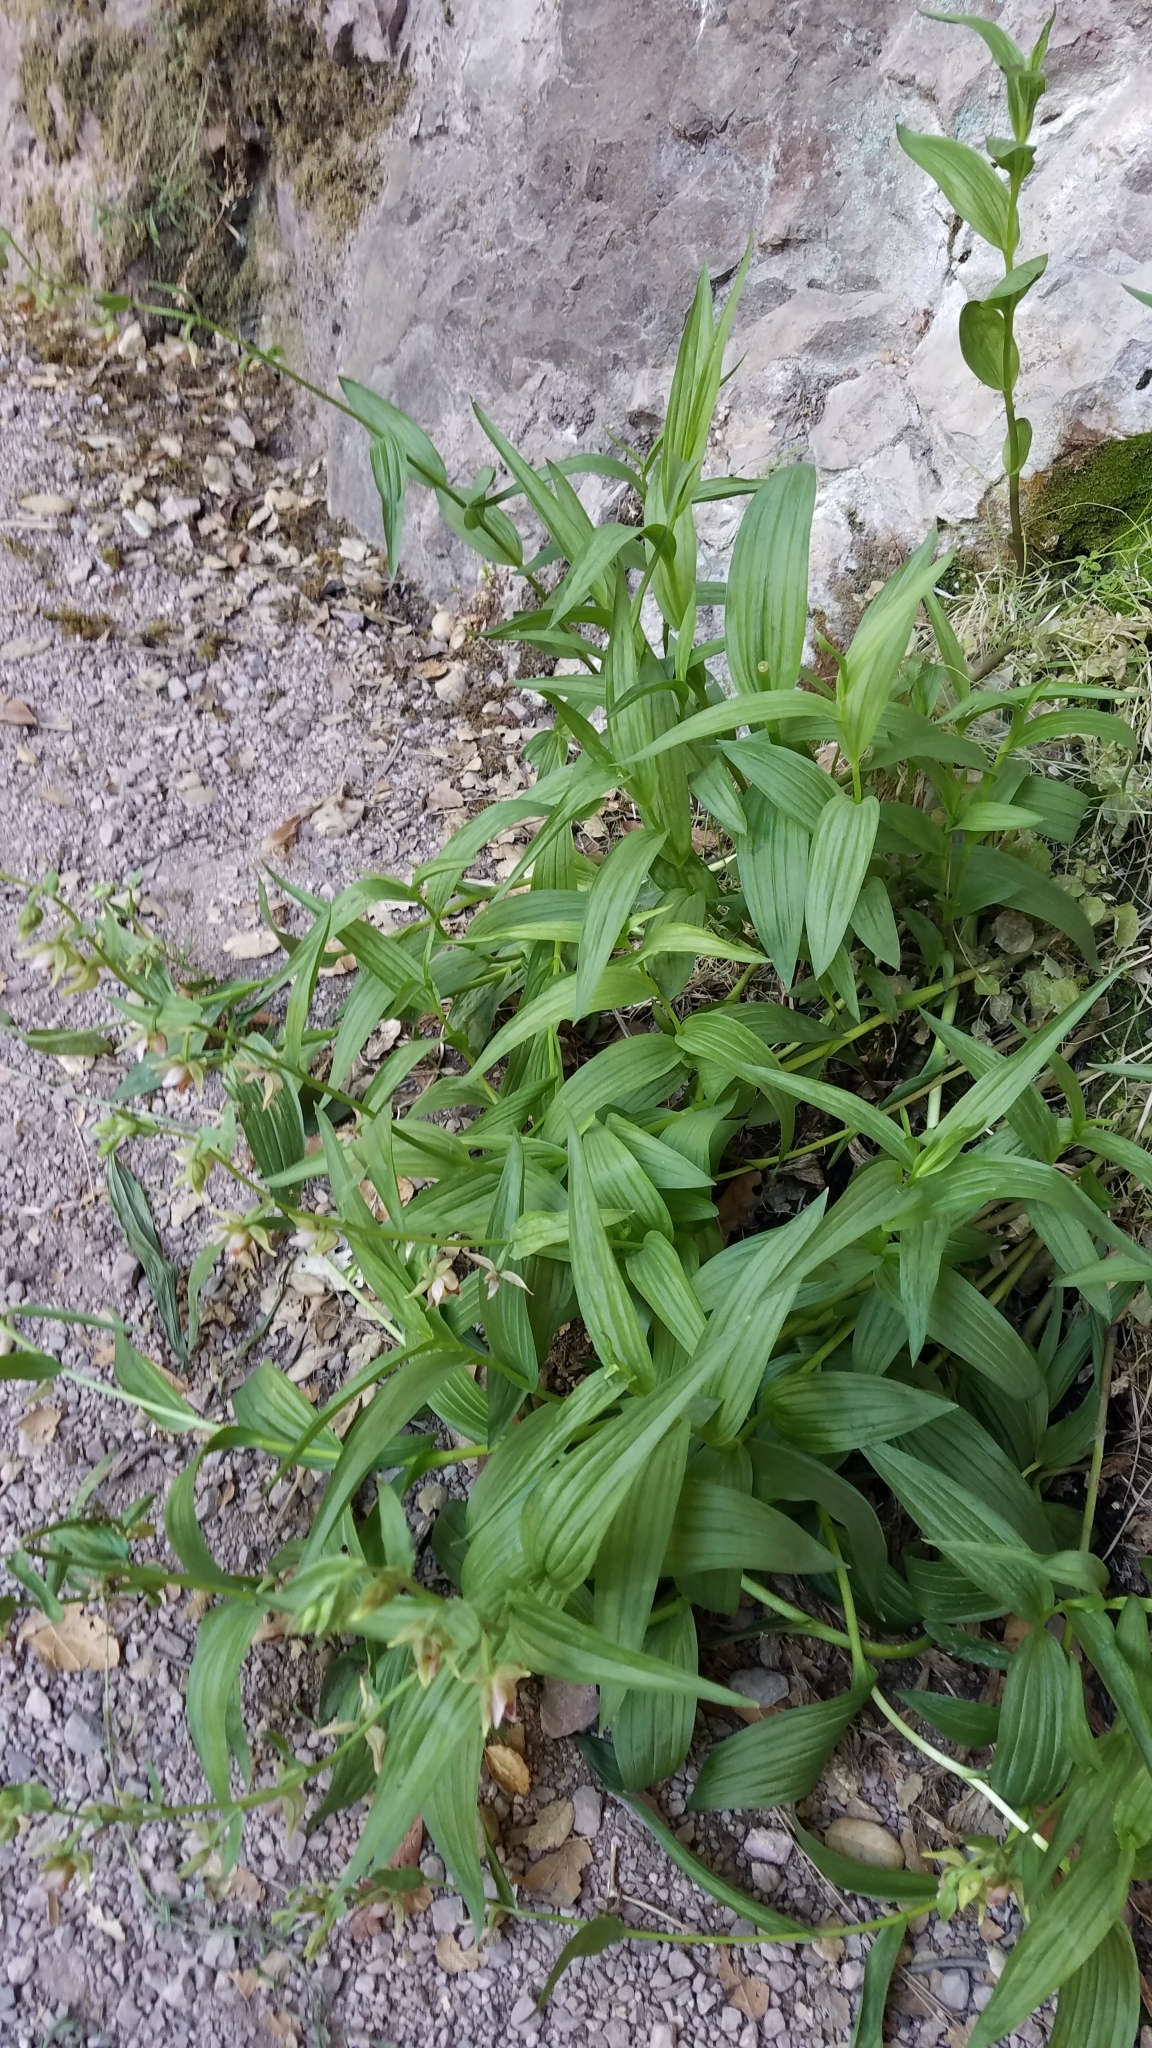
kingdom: Plantae
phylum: Tracheophyta
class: Liliopsida
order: Asparagales
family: Orchidaceae
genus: Epipactis
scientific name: Epipactis gigantea
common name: Chatterbox
